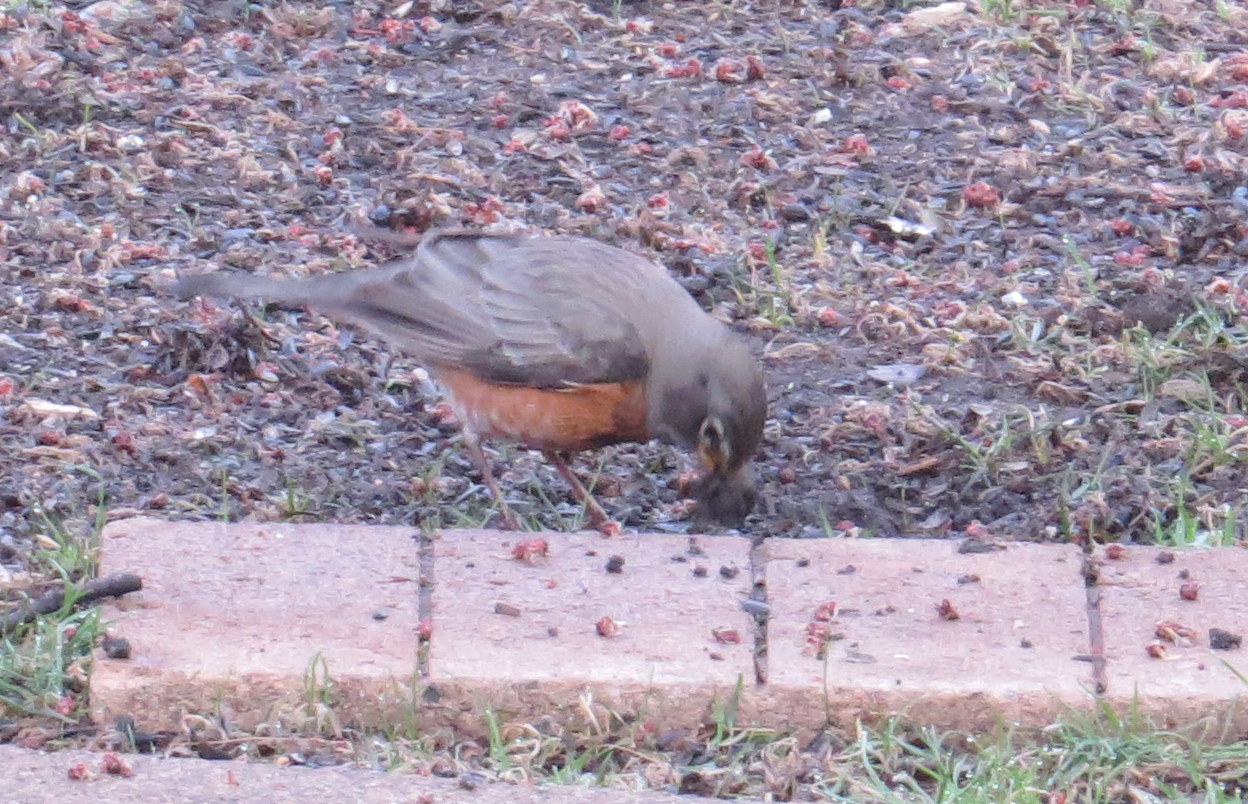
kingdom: Animalia
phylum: Chordata
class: Aves
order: Passeriformes
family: Turdidae
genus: Turdus
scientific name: Turdus migratorius
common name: American robin
